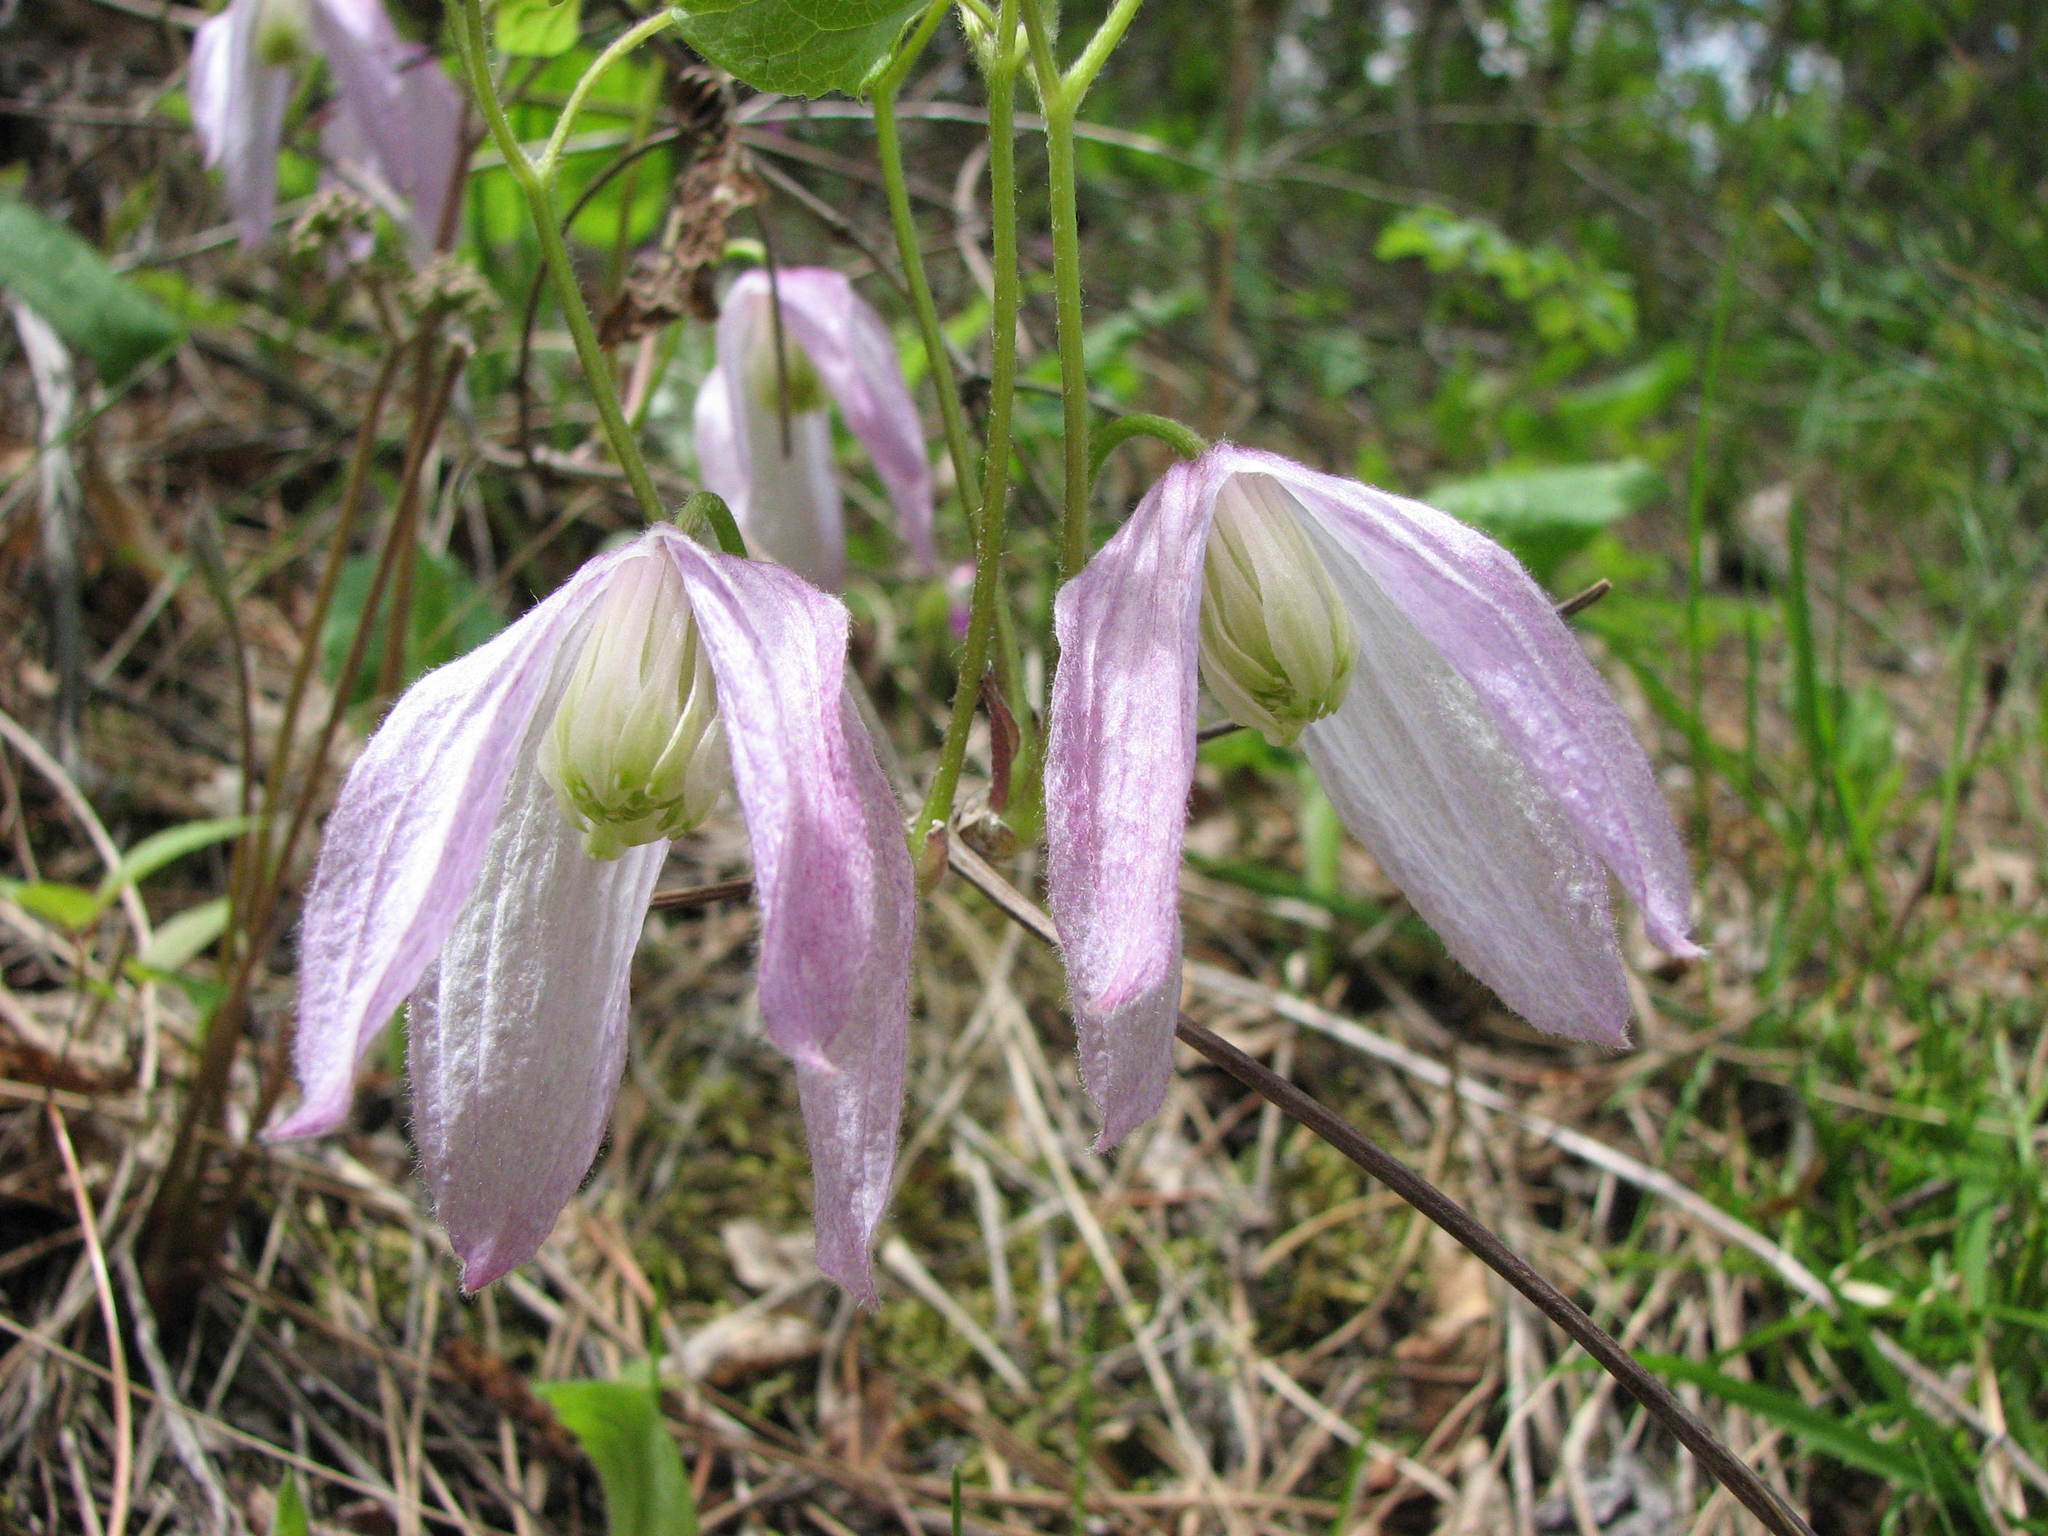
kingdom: Plantae
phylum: Tracheophyta
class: Magnoliopsida
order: Ranunculales
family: Ranunculaceae
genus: Clematis
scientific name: Clematis occidentalis
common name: Purple clematis
